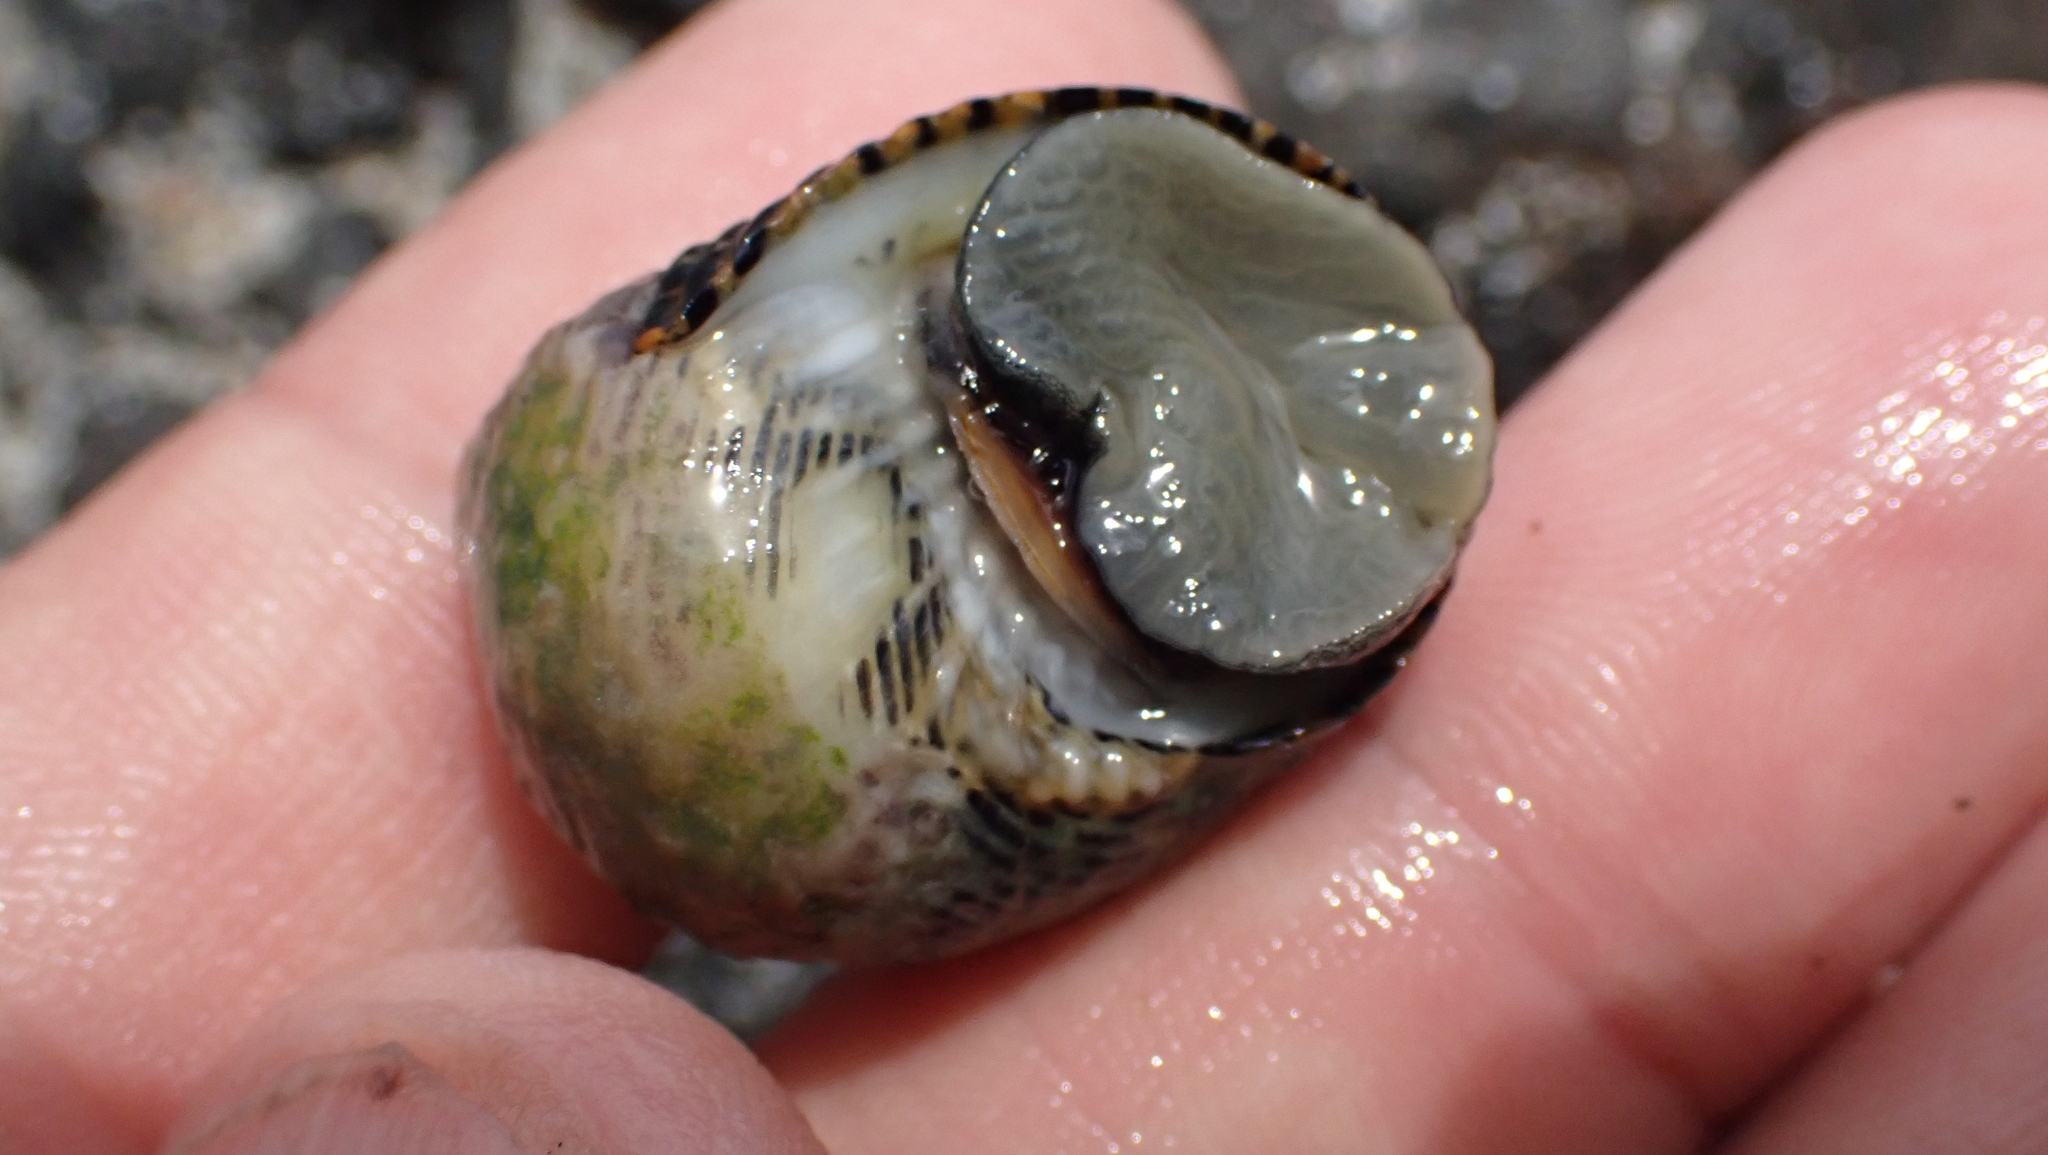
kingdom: Animalia
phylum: Mollusca
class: Gastropoda
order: Cycloneritida
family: Neritidae
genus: Nerita
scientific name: Nerita scabricosta
